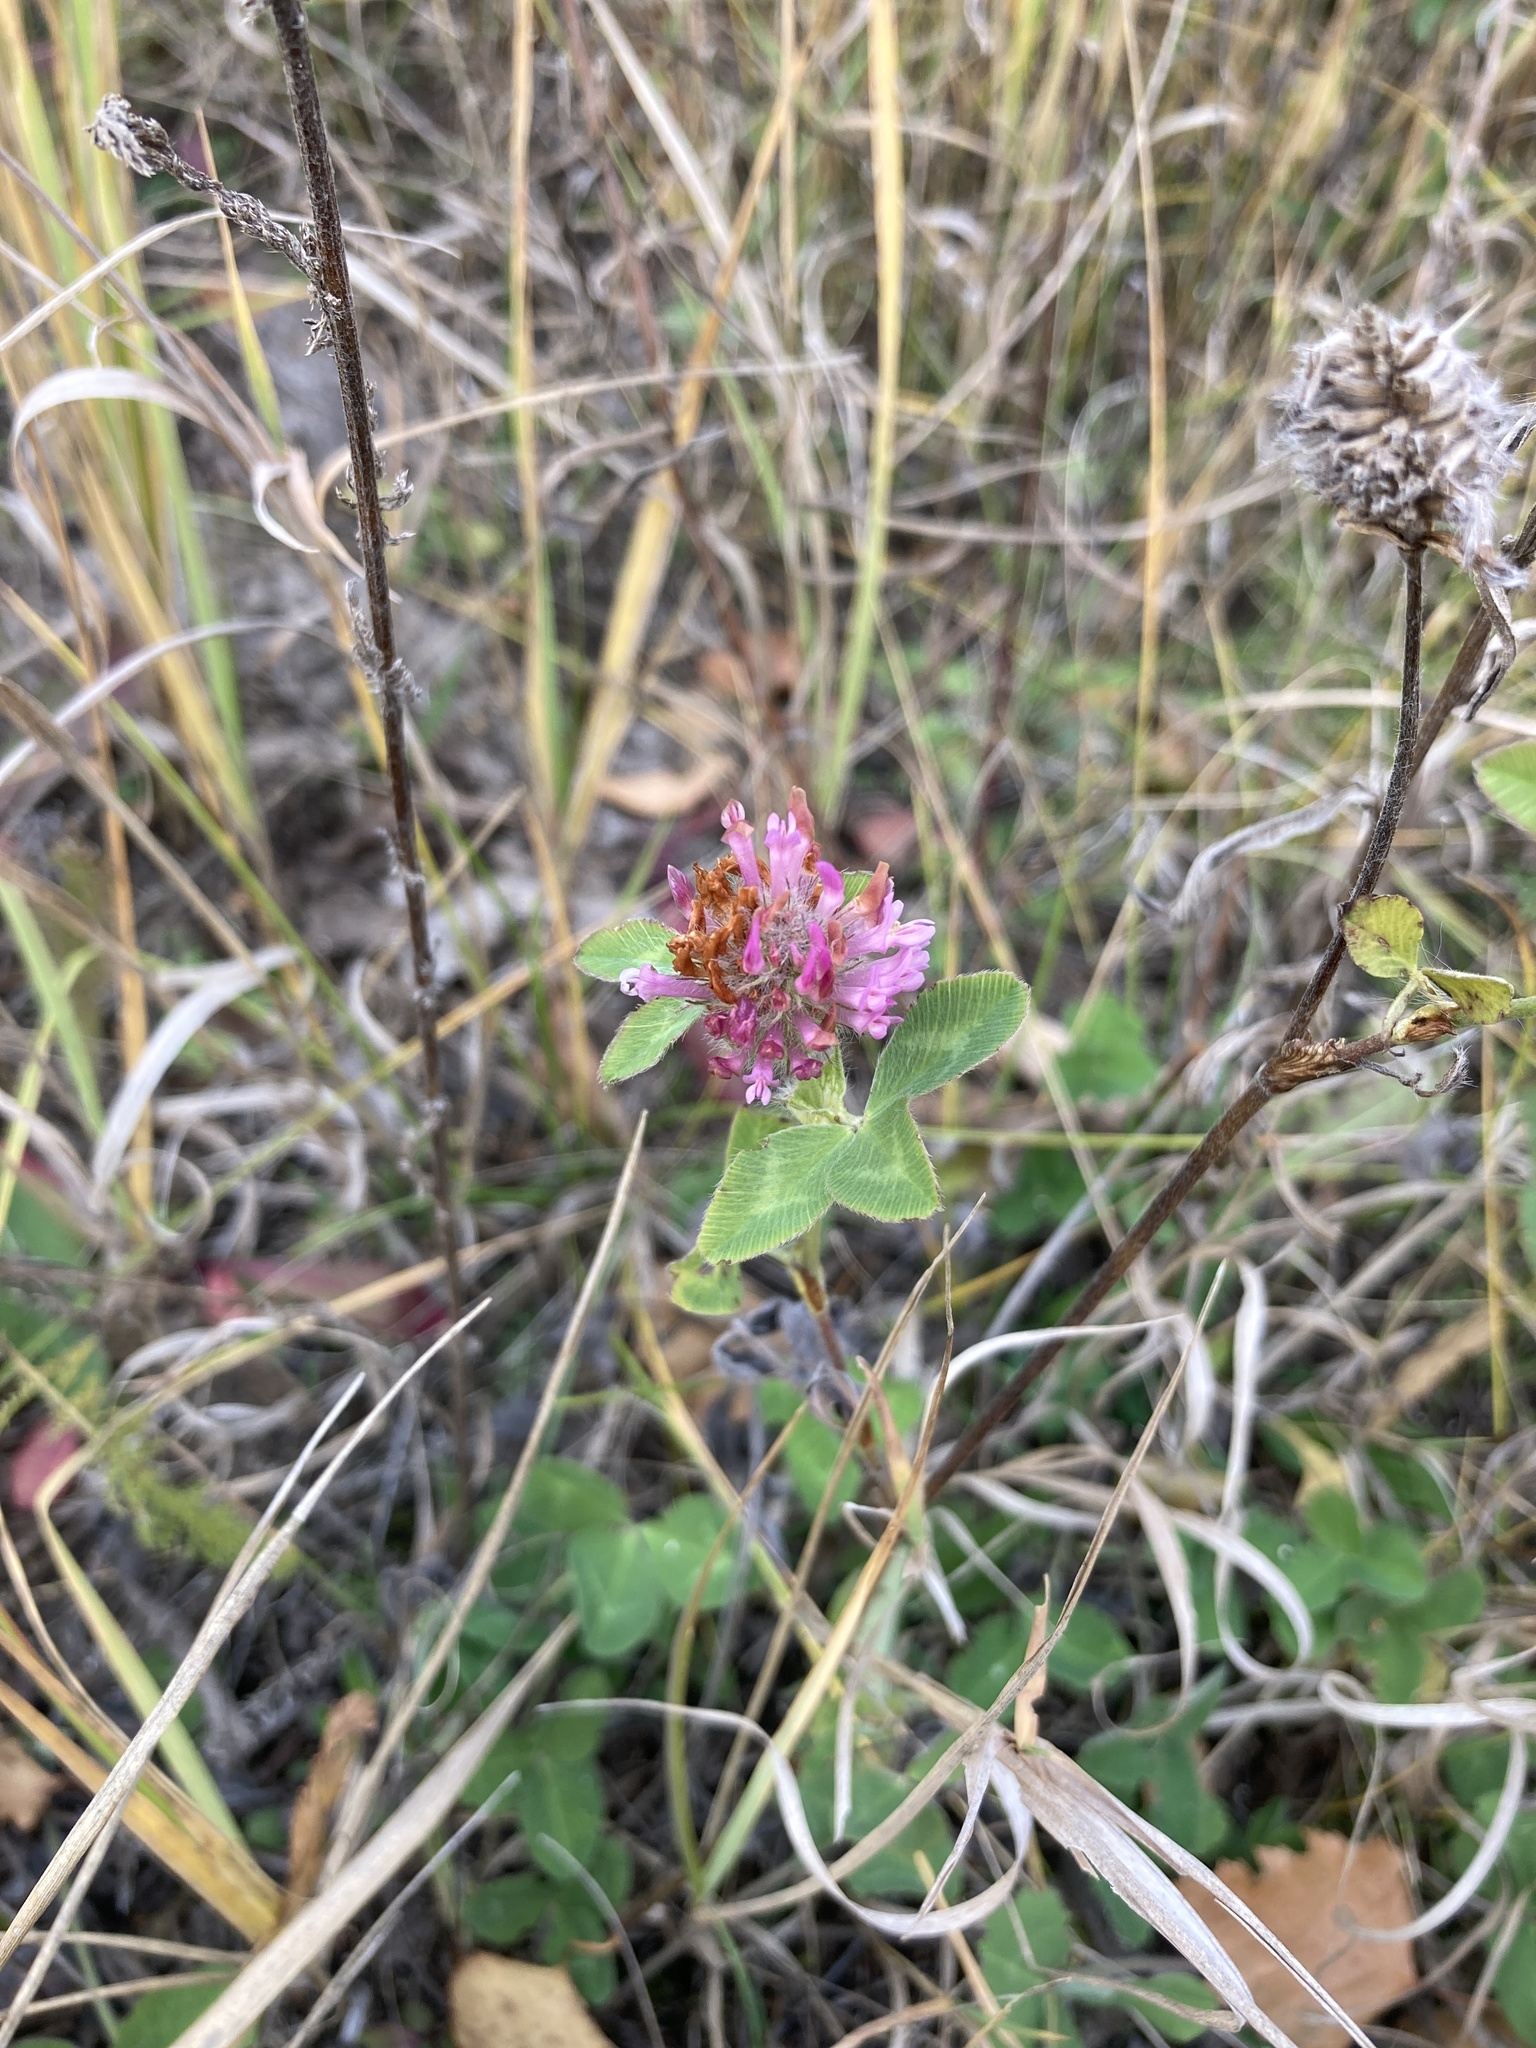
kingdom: Plantae
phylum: Tracheophyta
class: Magnoliopsida
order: Fabales
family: Fabaceae
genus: Trifolium
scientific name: Trifolium pratense
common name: Red clover
